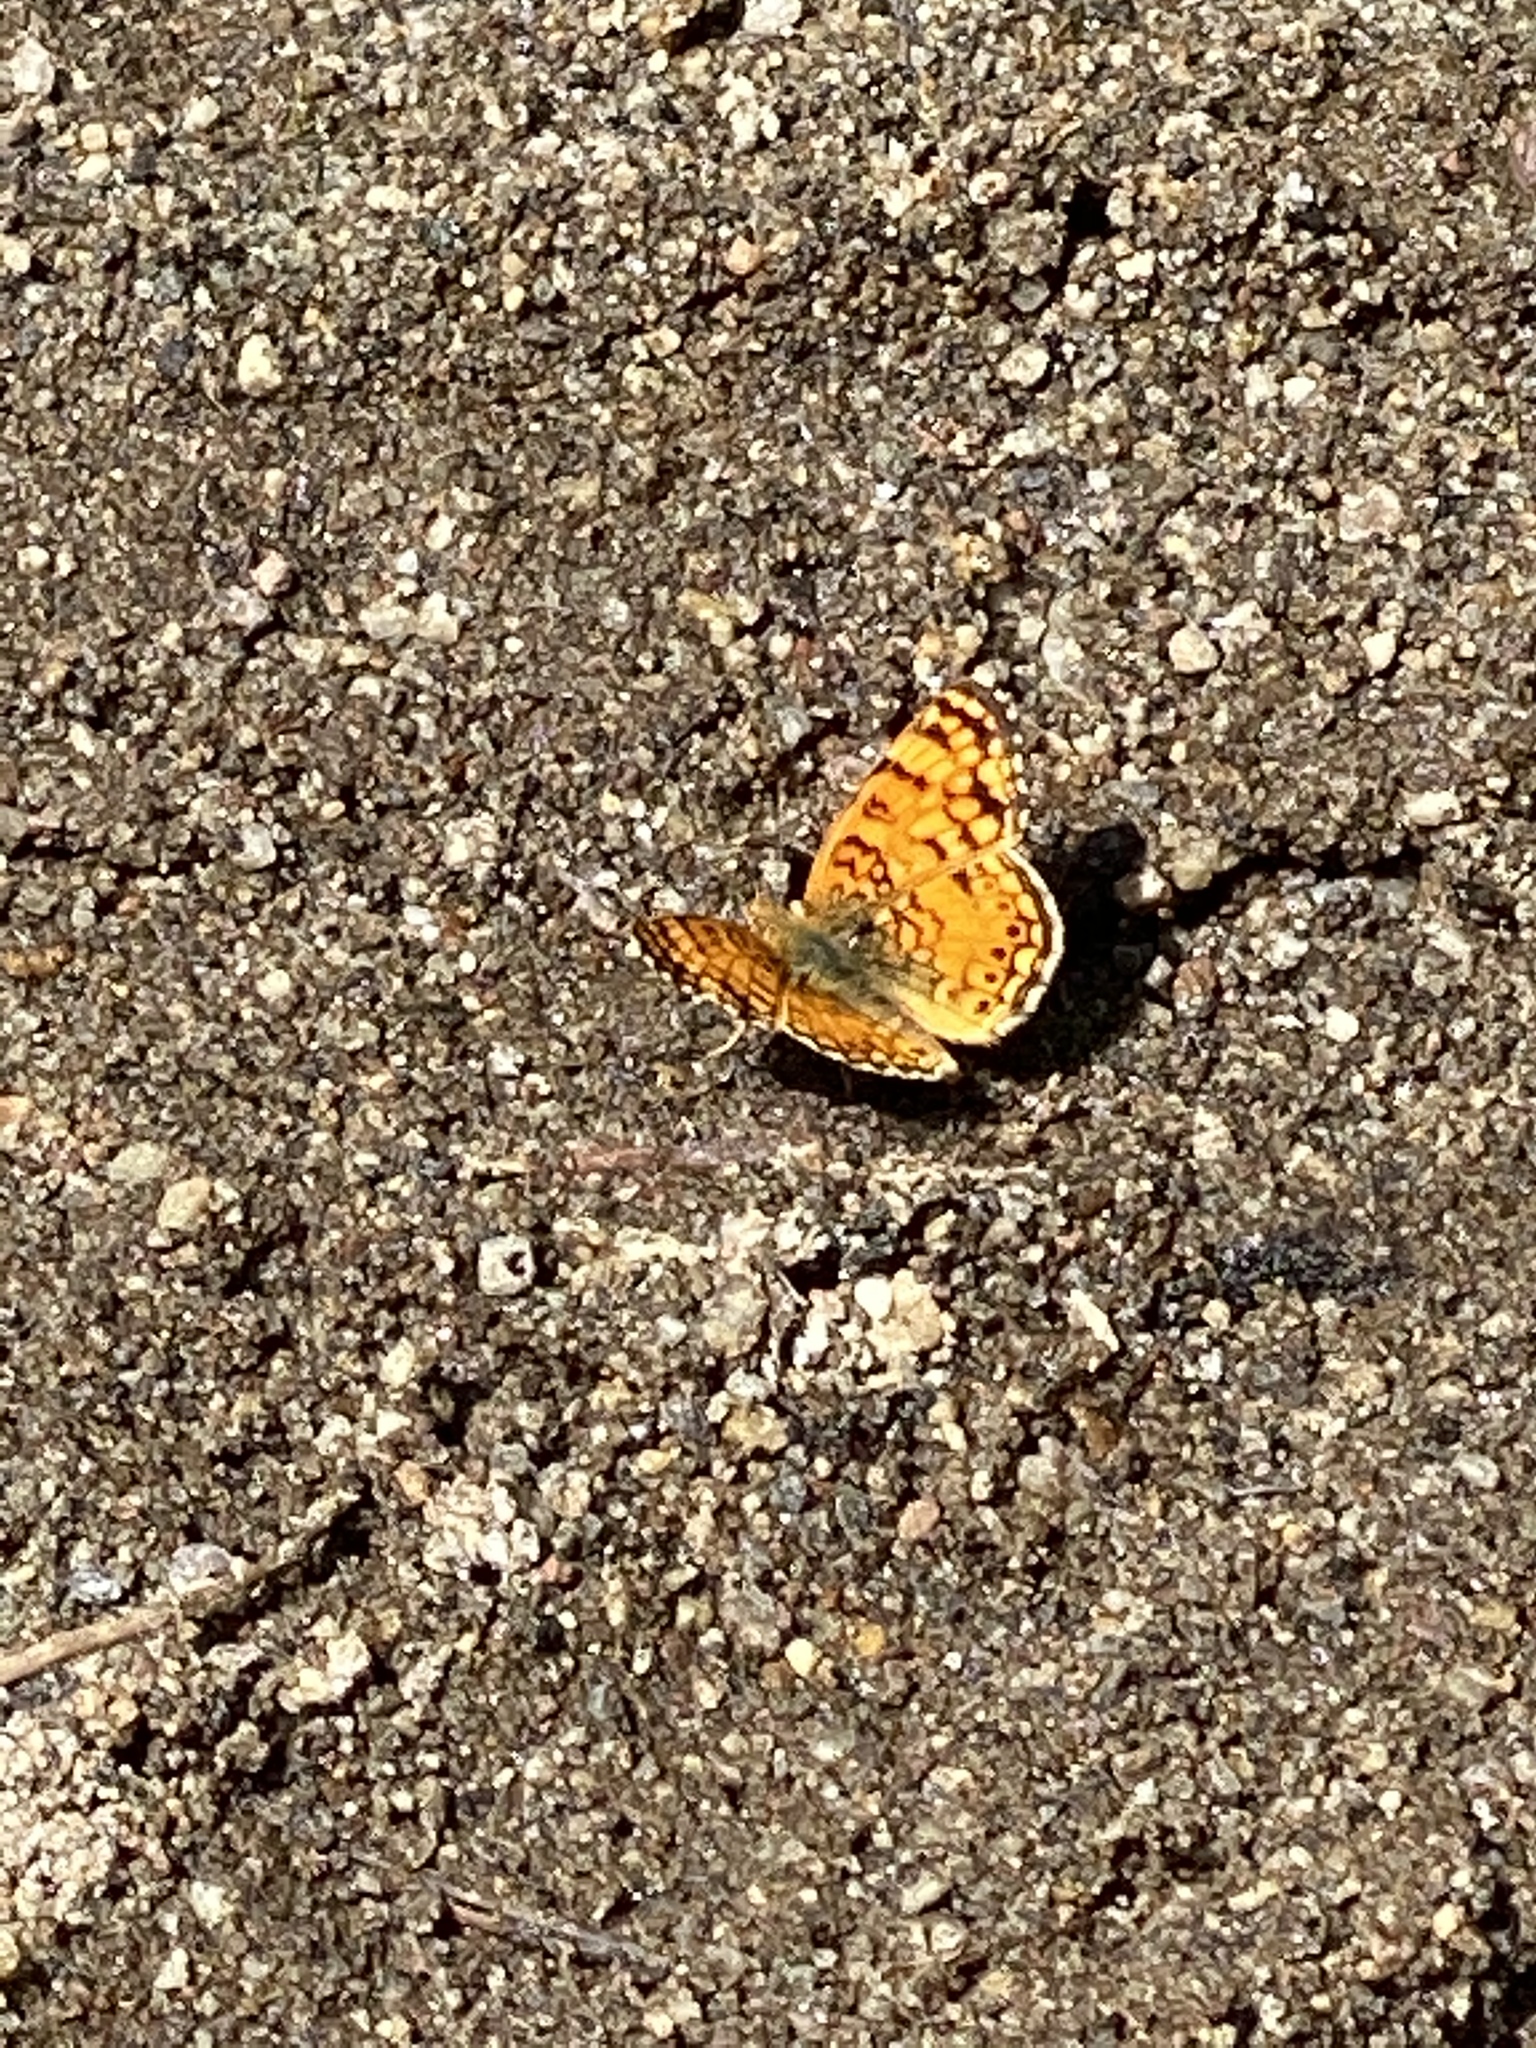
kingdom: Animalia
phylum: Arthropoda
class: Insecta
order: Lepidoptera
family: Nymphalidae
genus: Eresia
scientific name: Eresia aveyrona
